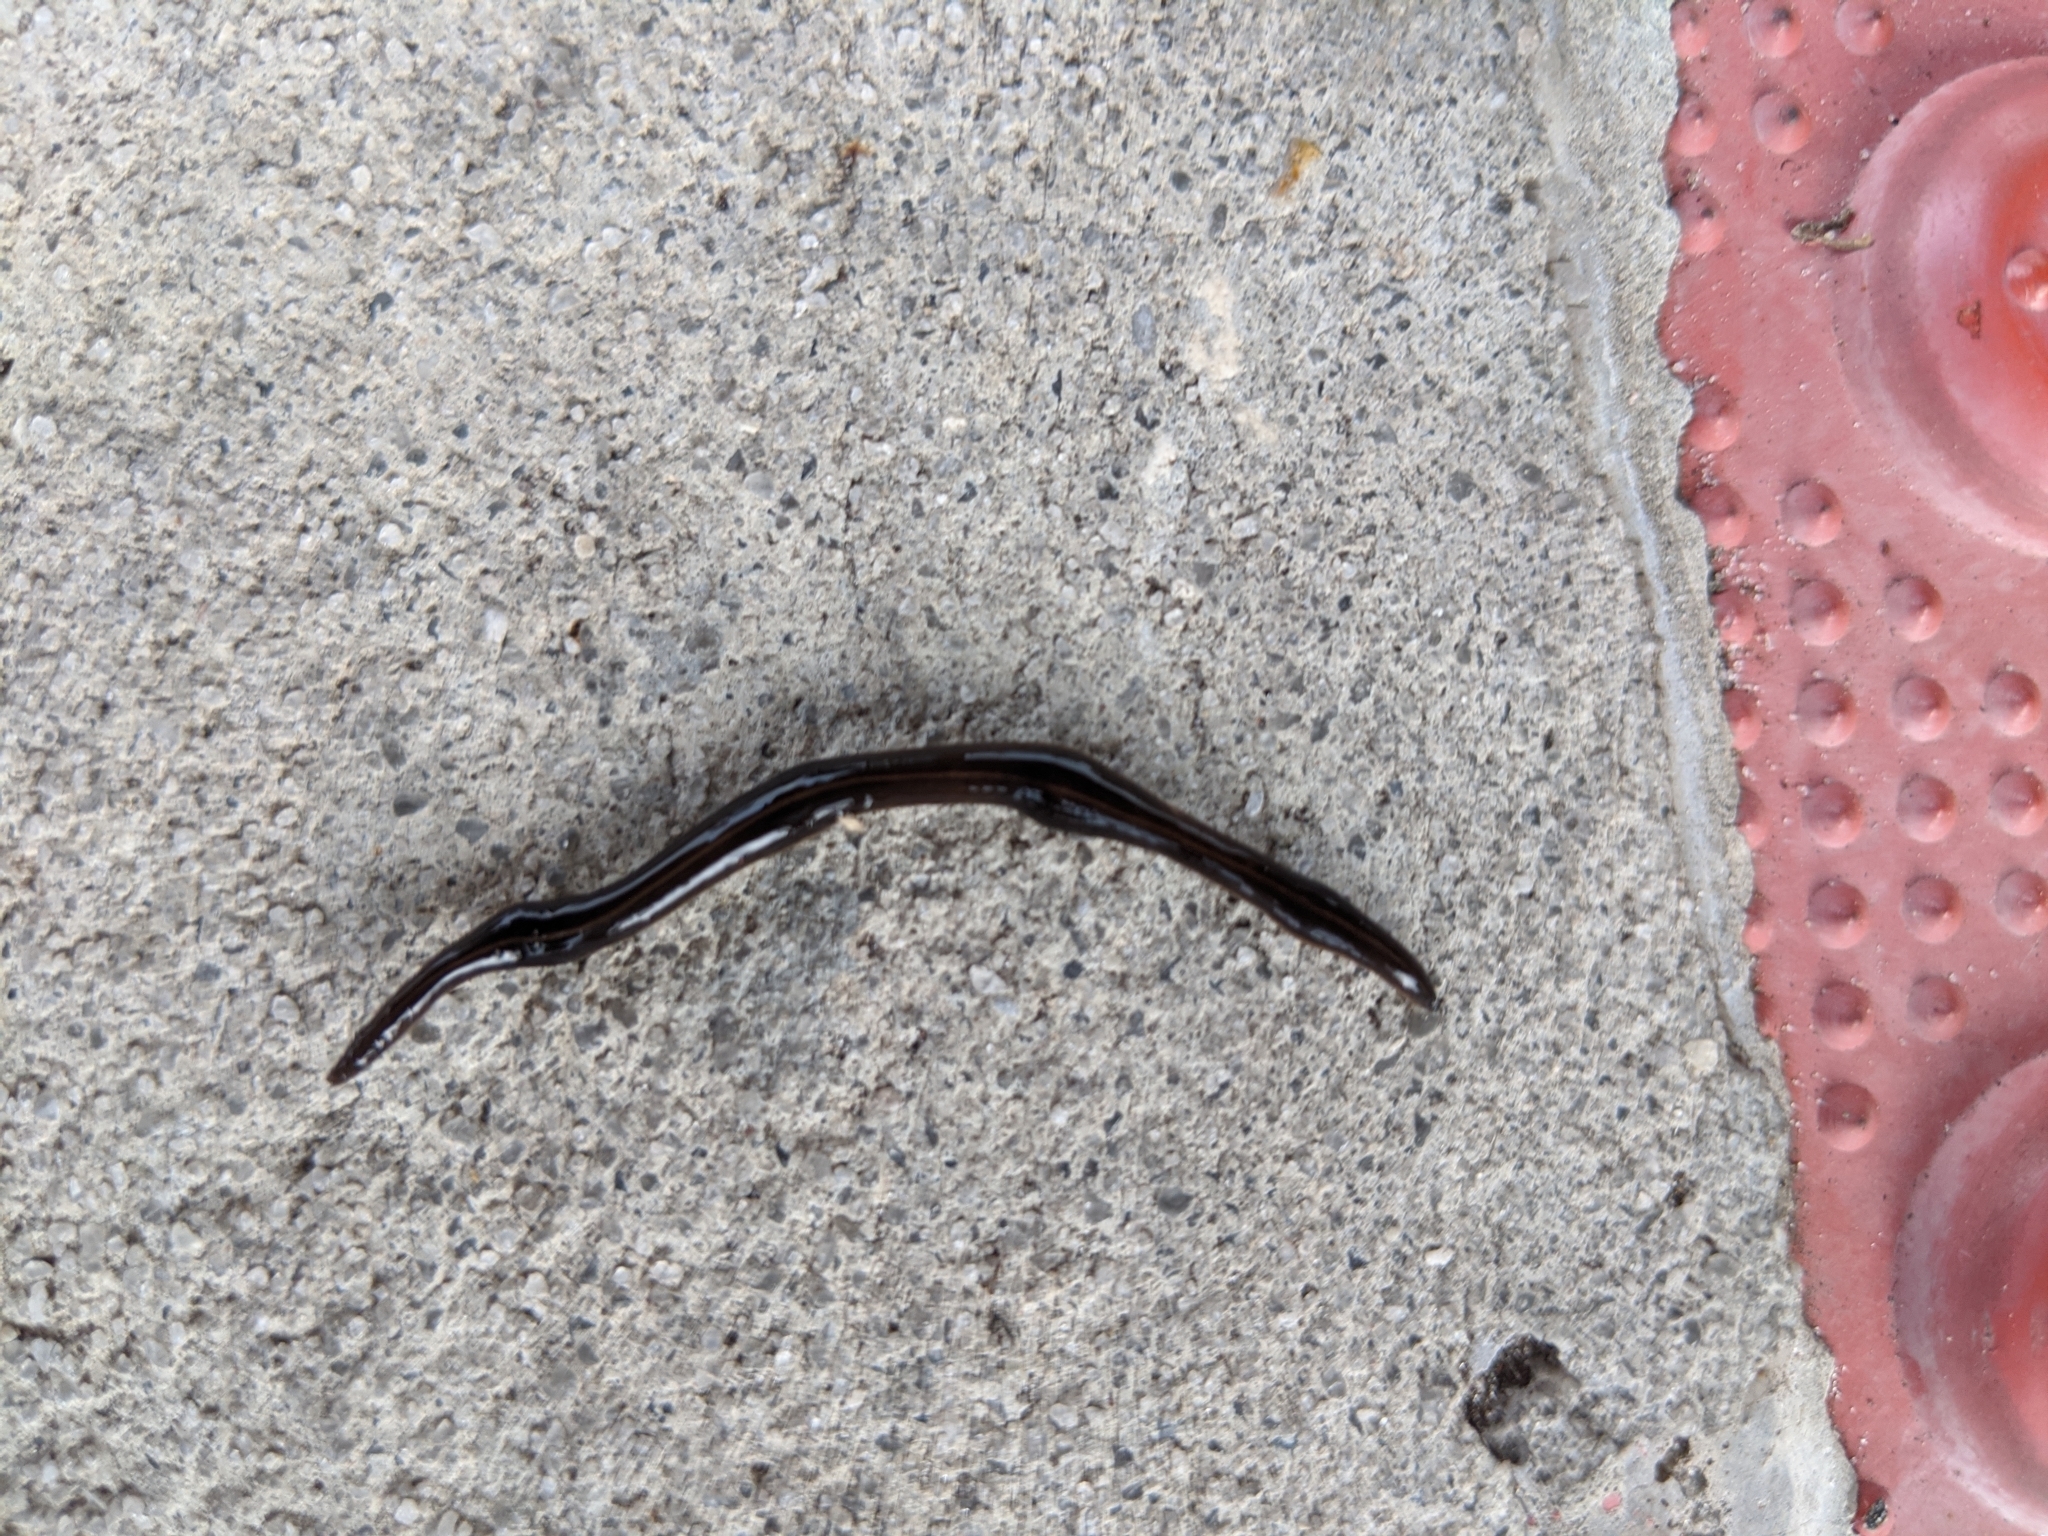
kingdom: Animalia
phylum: Platyhelminthes
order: Tricladida
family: Geoplanidae
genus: Platydemus
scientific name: Platydemus manokwari
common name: New guinea flatworm
